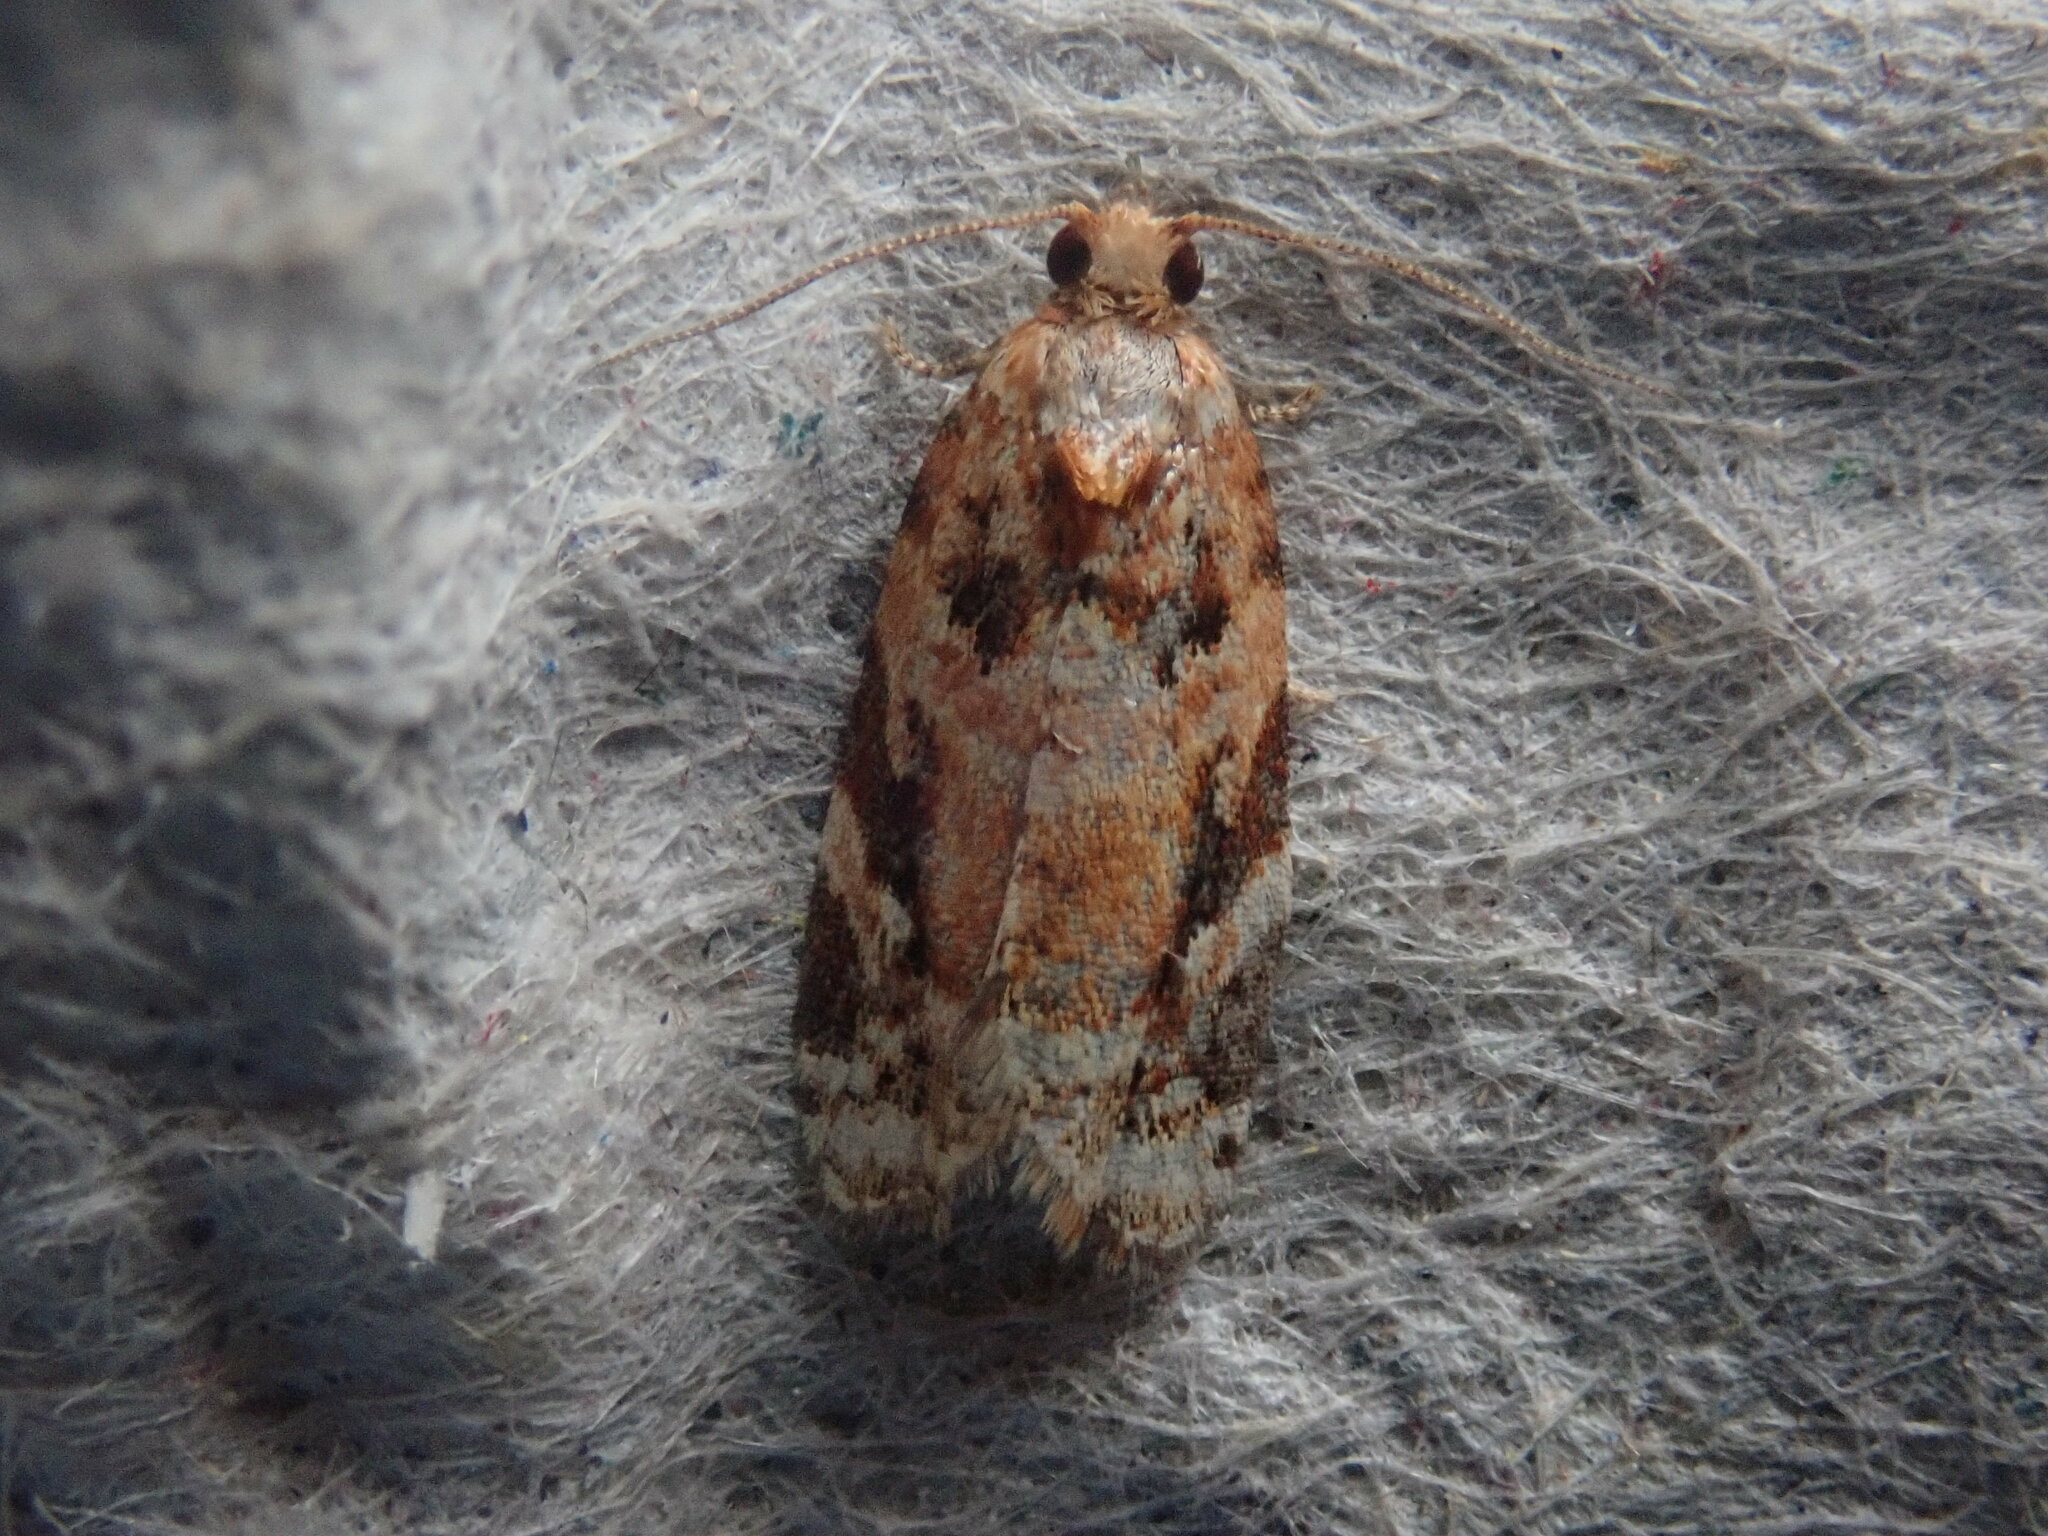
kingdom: Animalia
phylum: Arthropoda
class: Insecta
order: Lepidoptera
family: Tortricidae
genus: Argyrotaenia
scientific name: Argyrotaenia velutinana
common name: Red-banded leafroller moth
